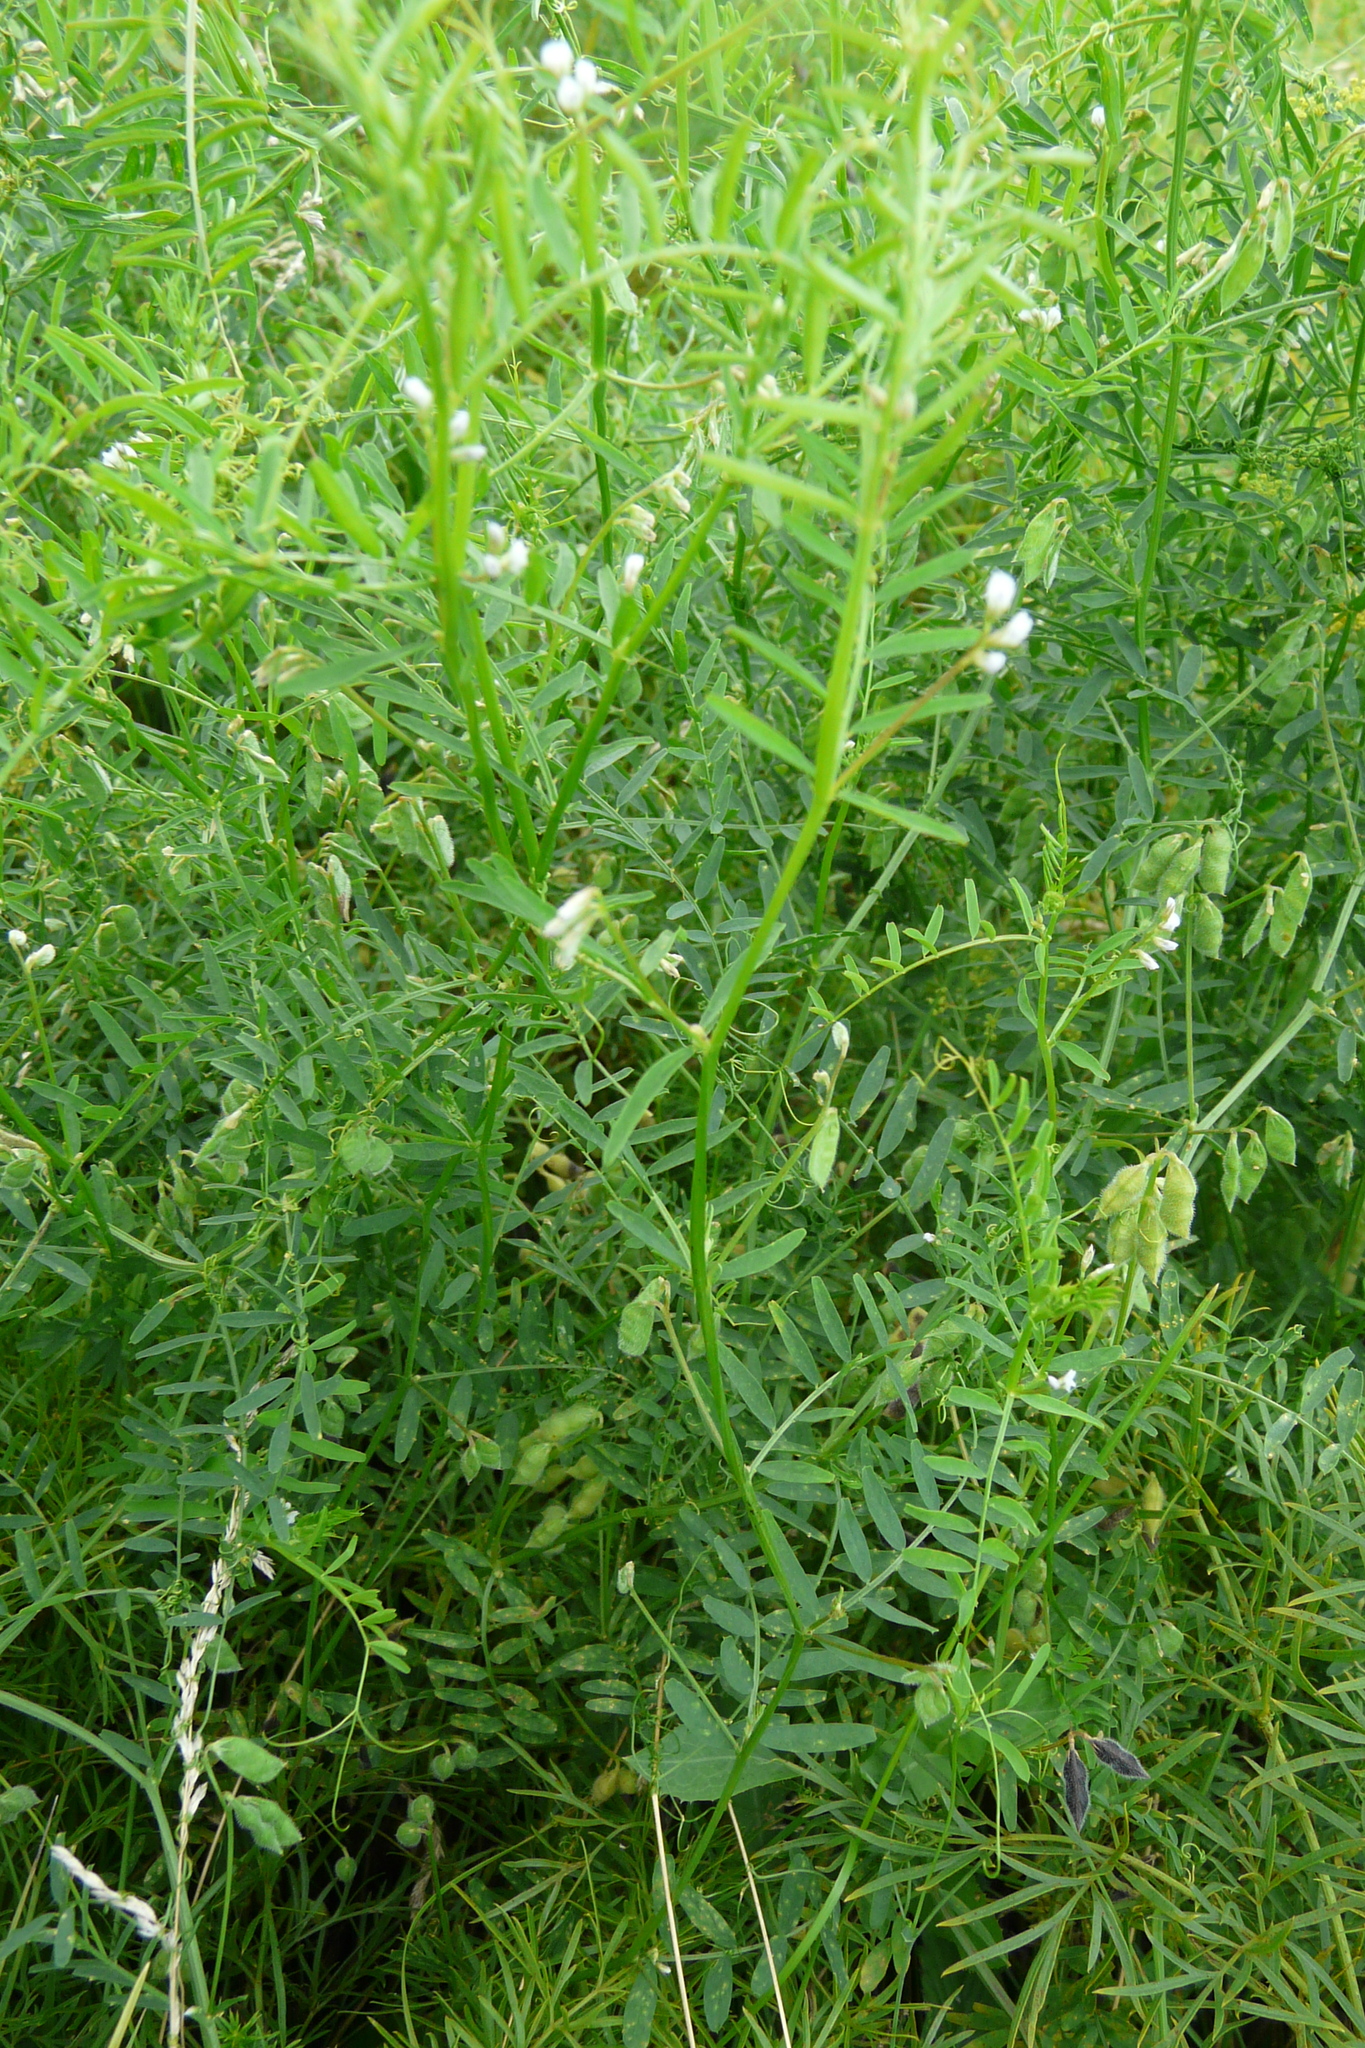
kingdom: Plantae
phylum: Tracheophyta
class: Magnoliopsida
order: Fabales
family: Fabaceae
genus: Vicia
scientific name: Vicia hirsuta
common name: Tiny vetch
